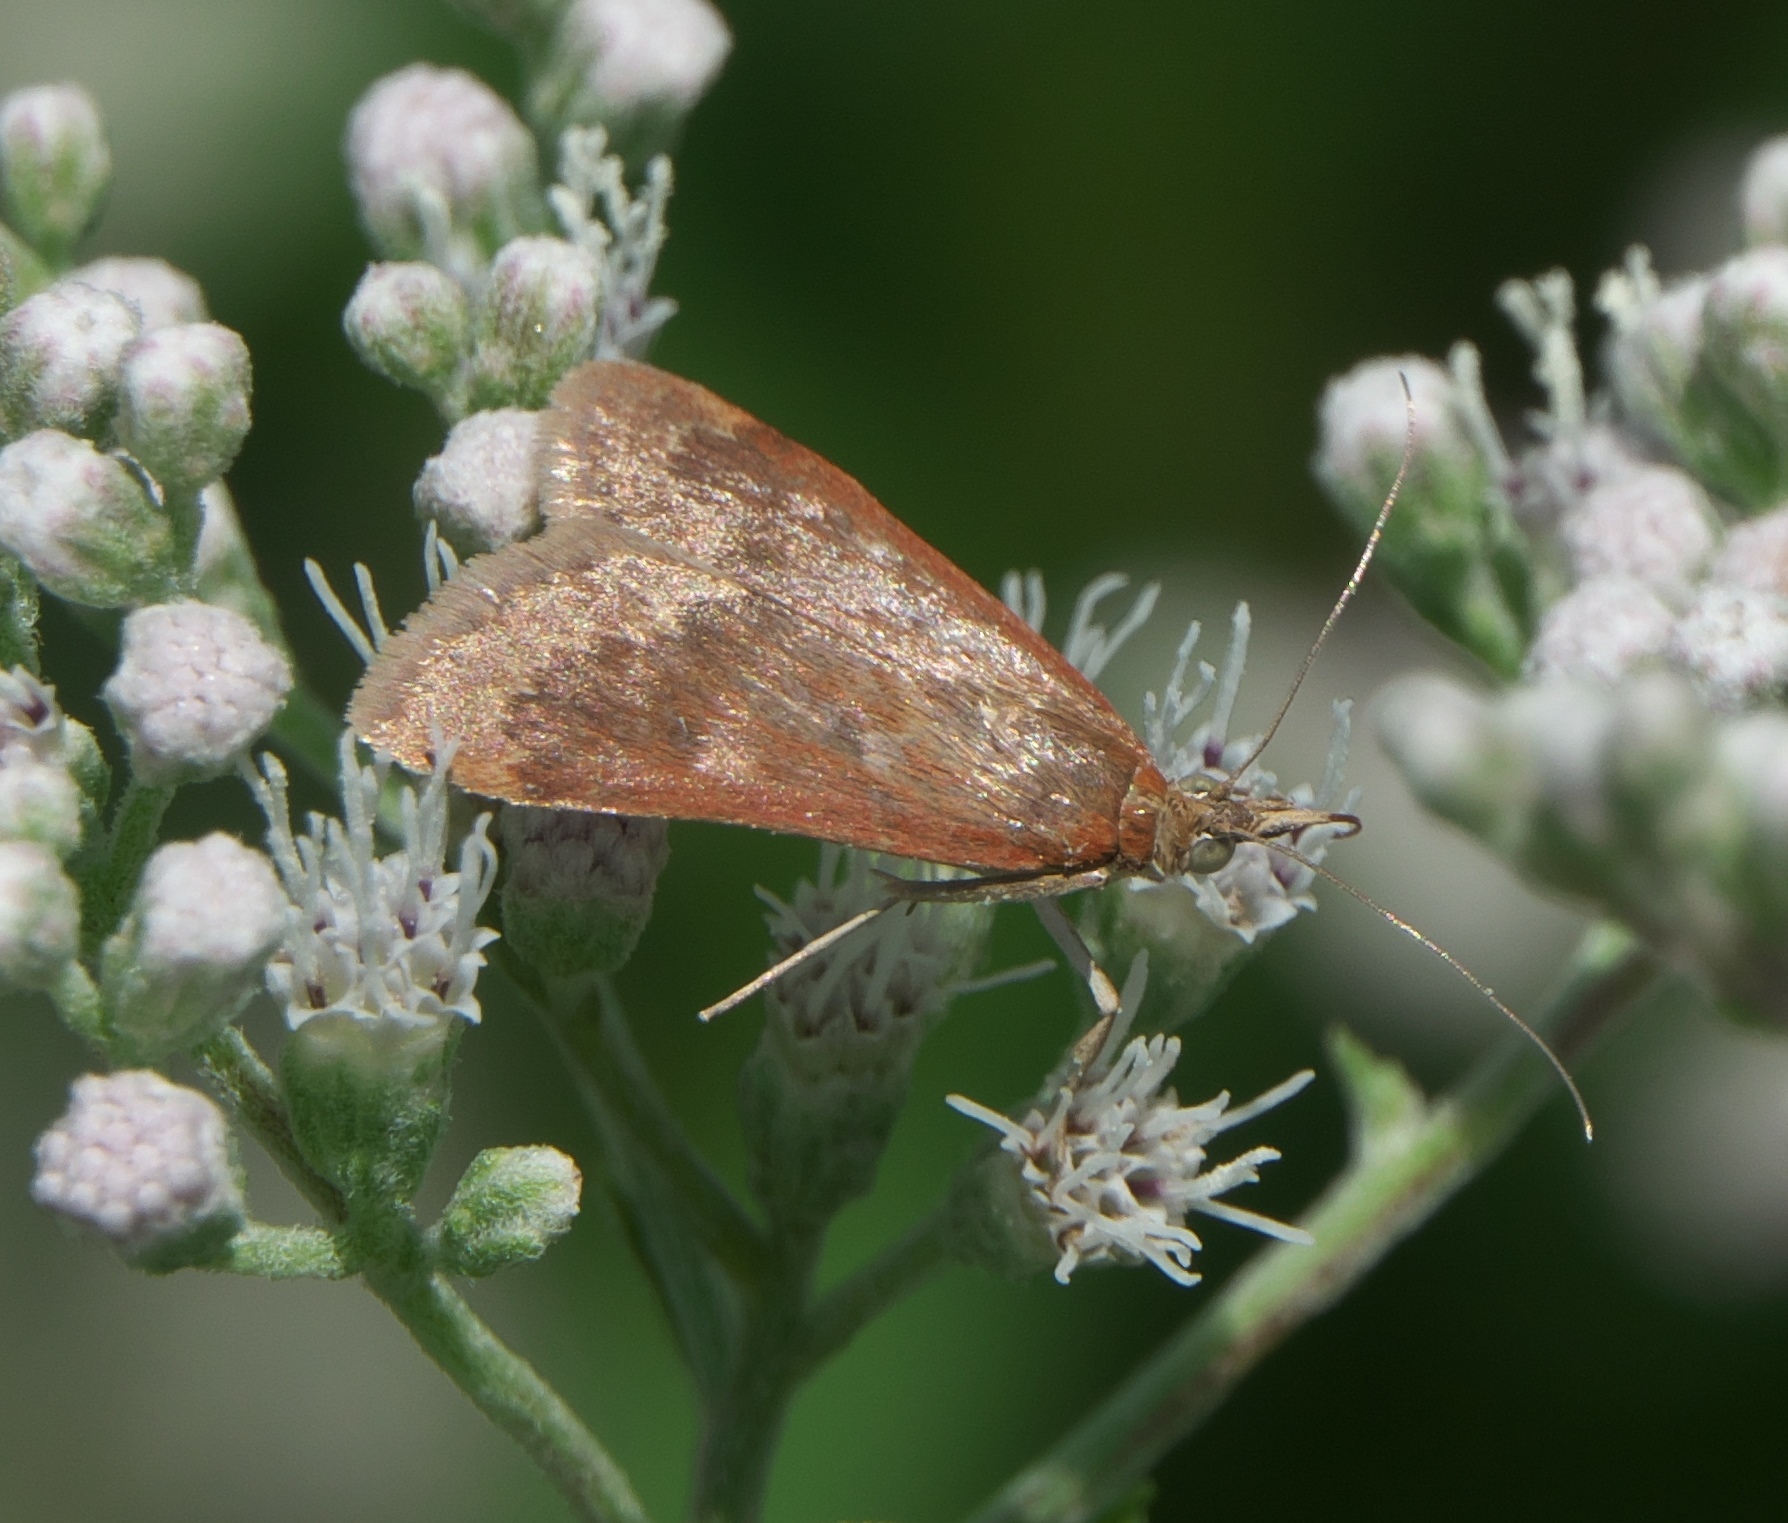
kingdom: Animalia
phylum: Arthropoda
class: Insecta
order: Lepidoptera
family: Crambidae
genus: Achyra
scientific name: Achyra rantalis
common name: Garden webworm
